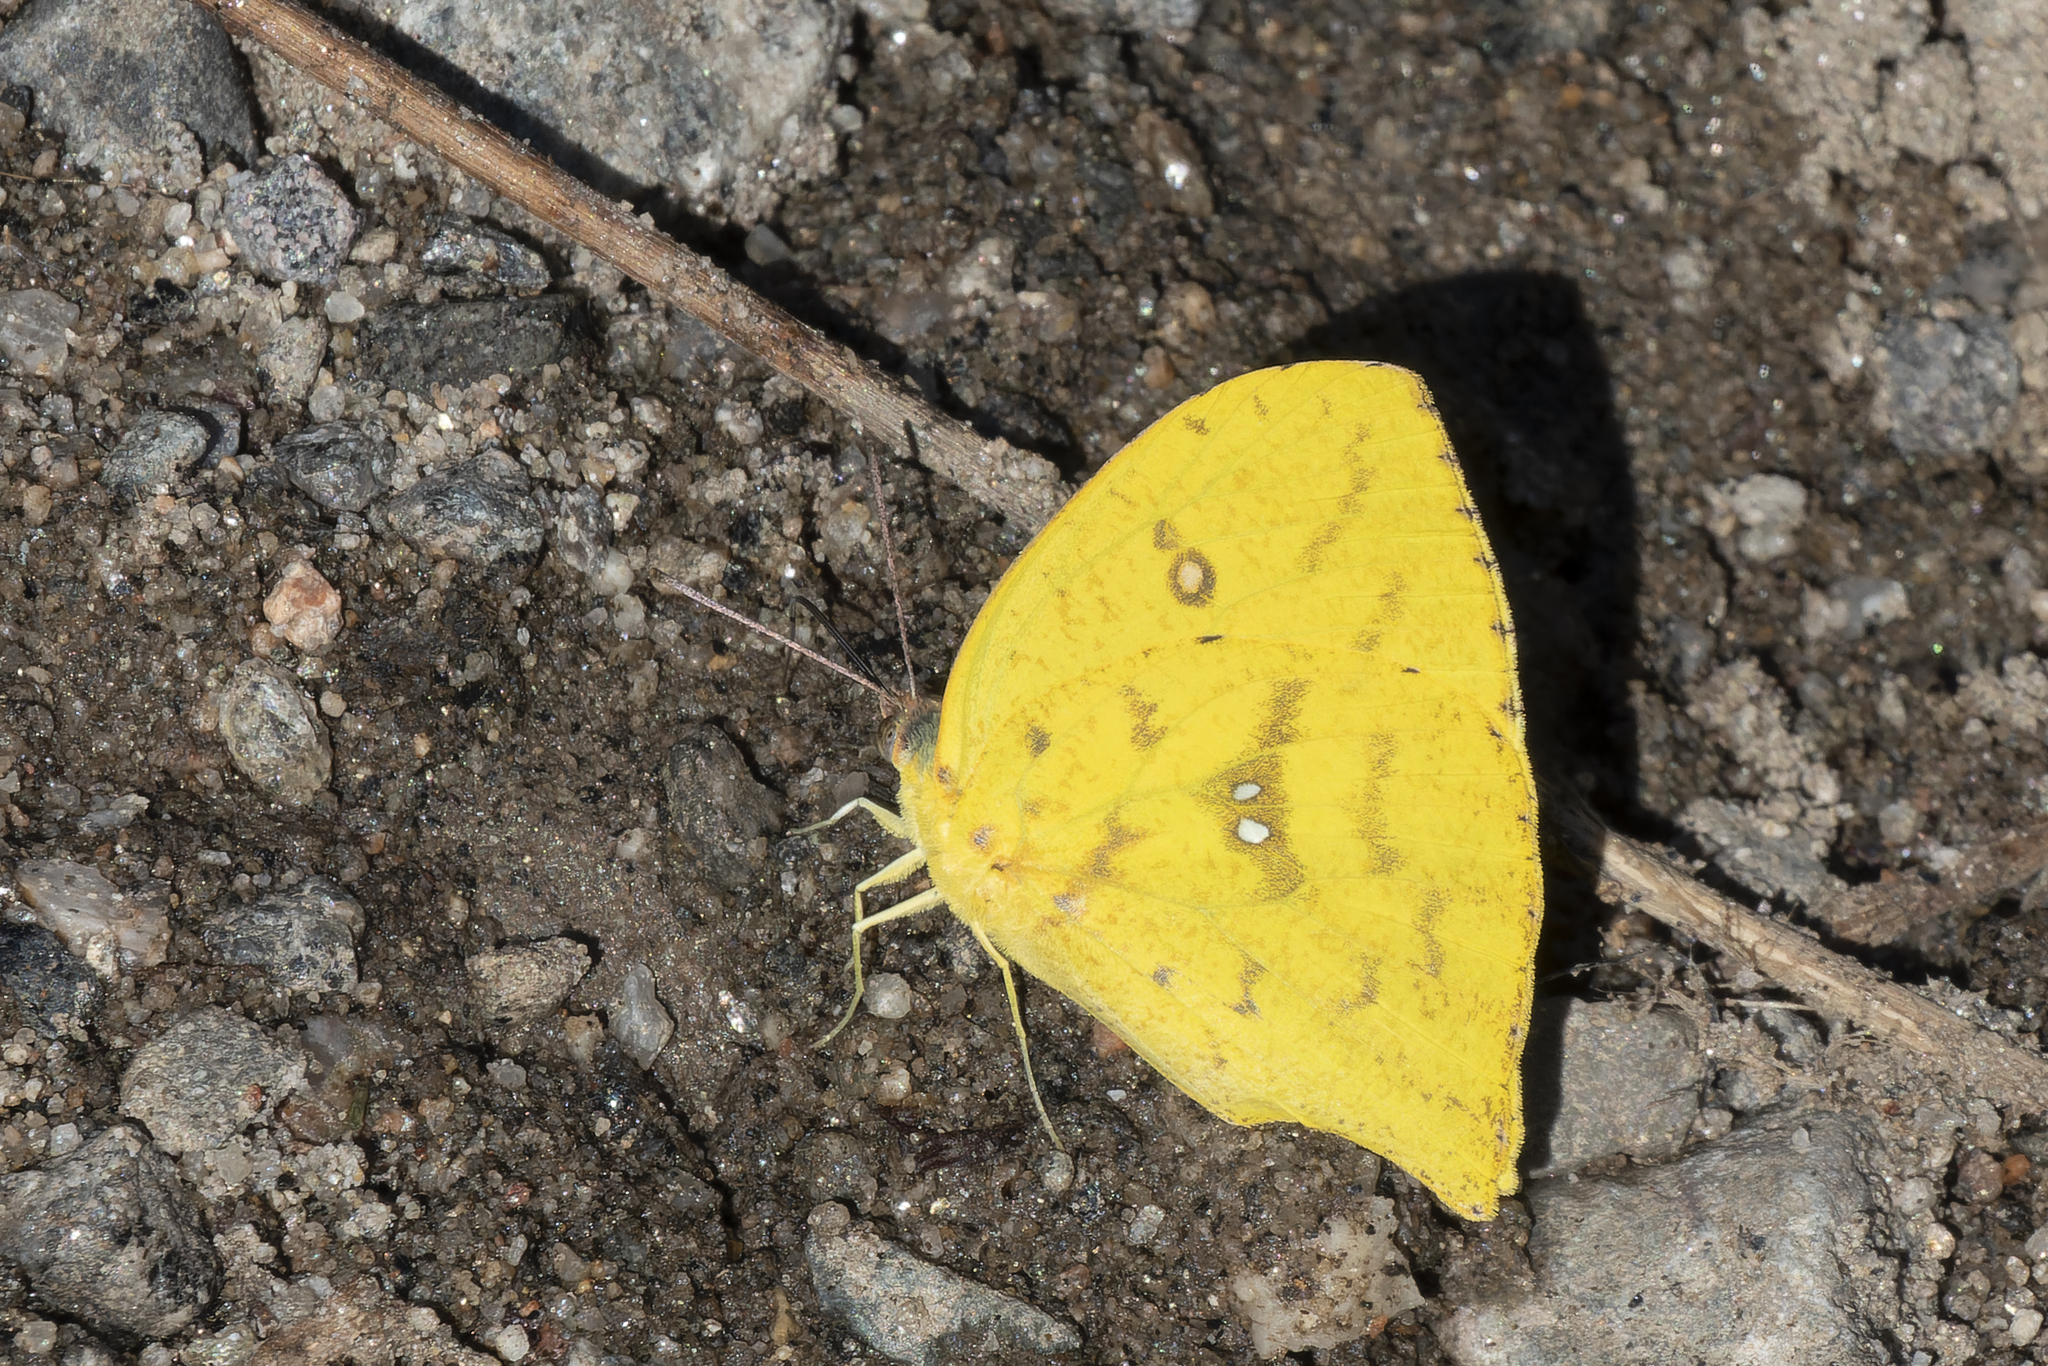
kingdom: Animalia
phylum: Arthropoda
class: Insecta
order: Lepidoptera
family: Pieridae
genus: Phoebis
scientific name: Phoebis neocypris
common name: Tailed sulphur
